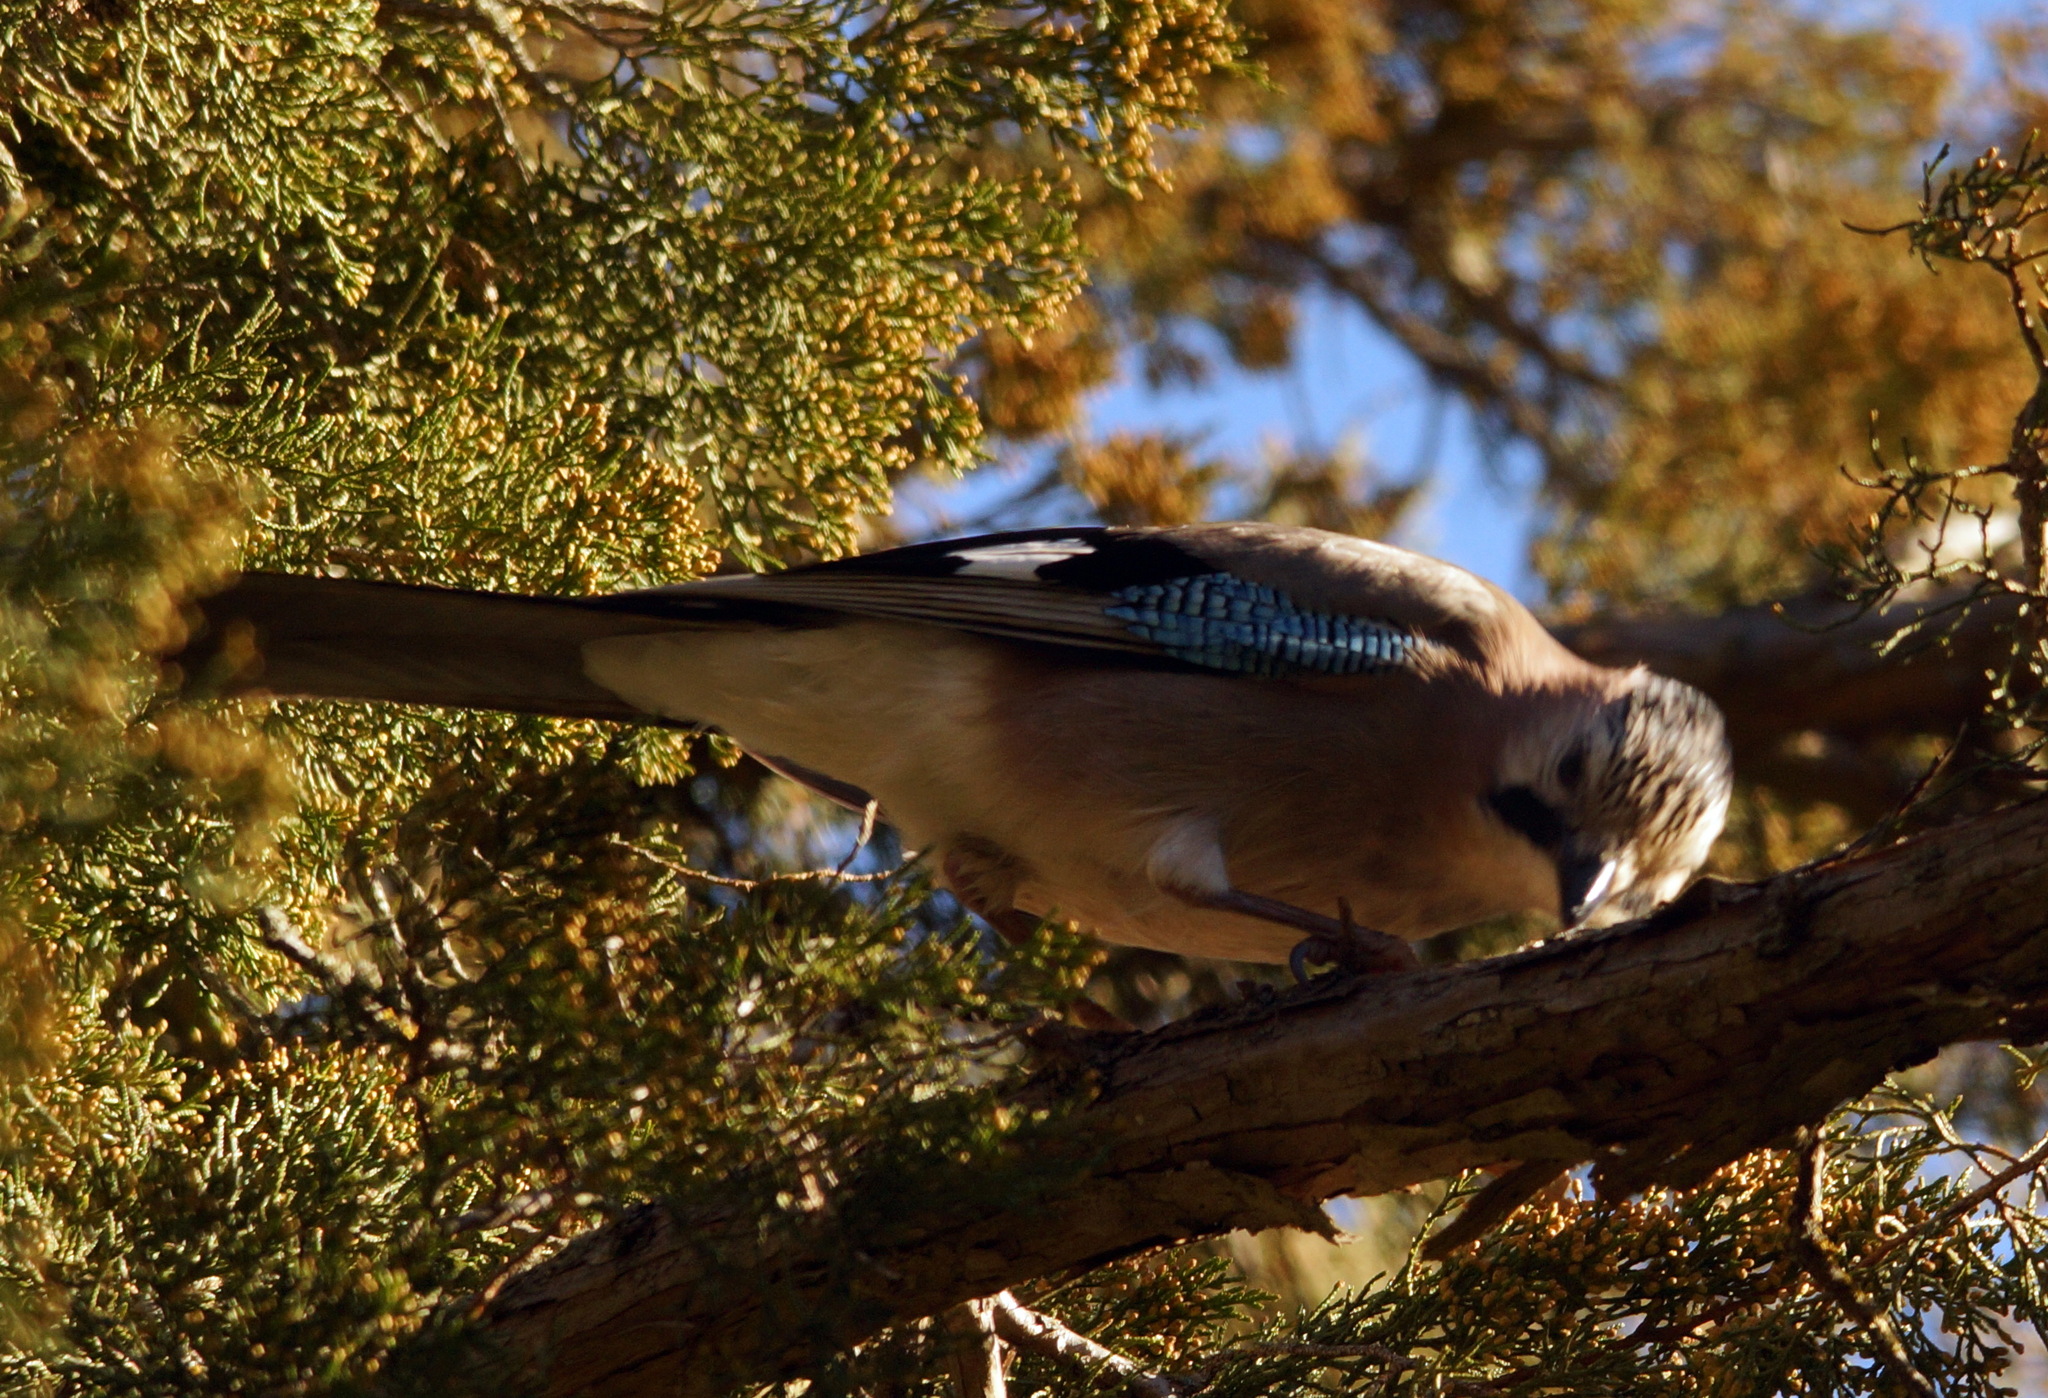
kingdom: Animalia
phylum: Chordata
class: Aves
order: Passeriformes
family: Corvidae
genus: Garrulus
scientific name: Garrulus glandarius
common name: Eurasian jay
